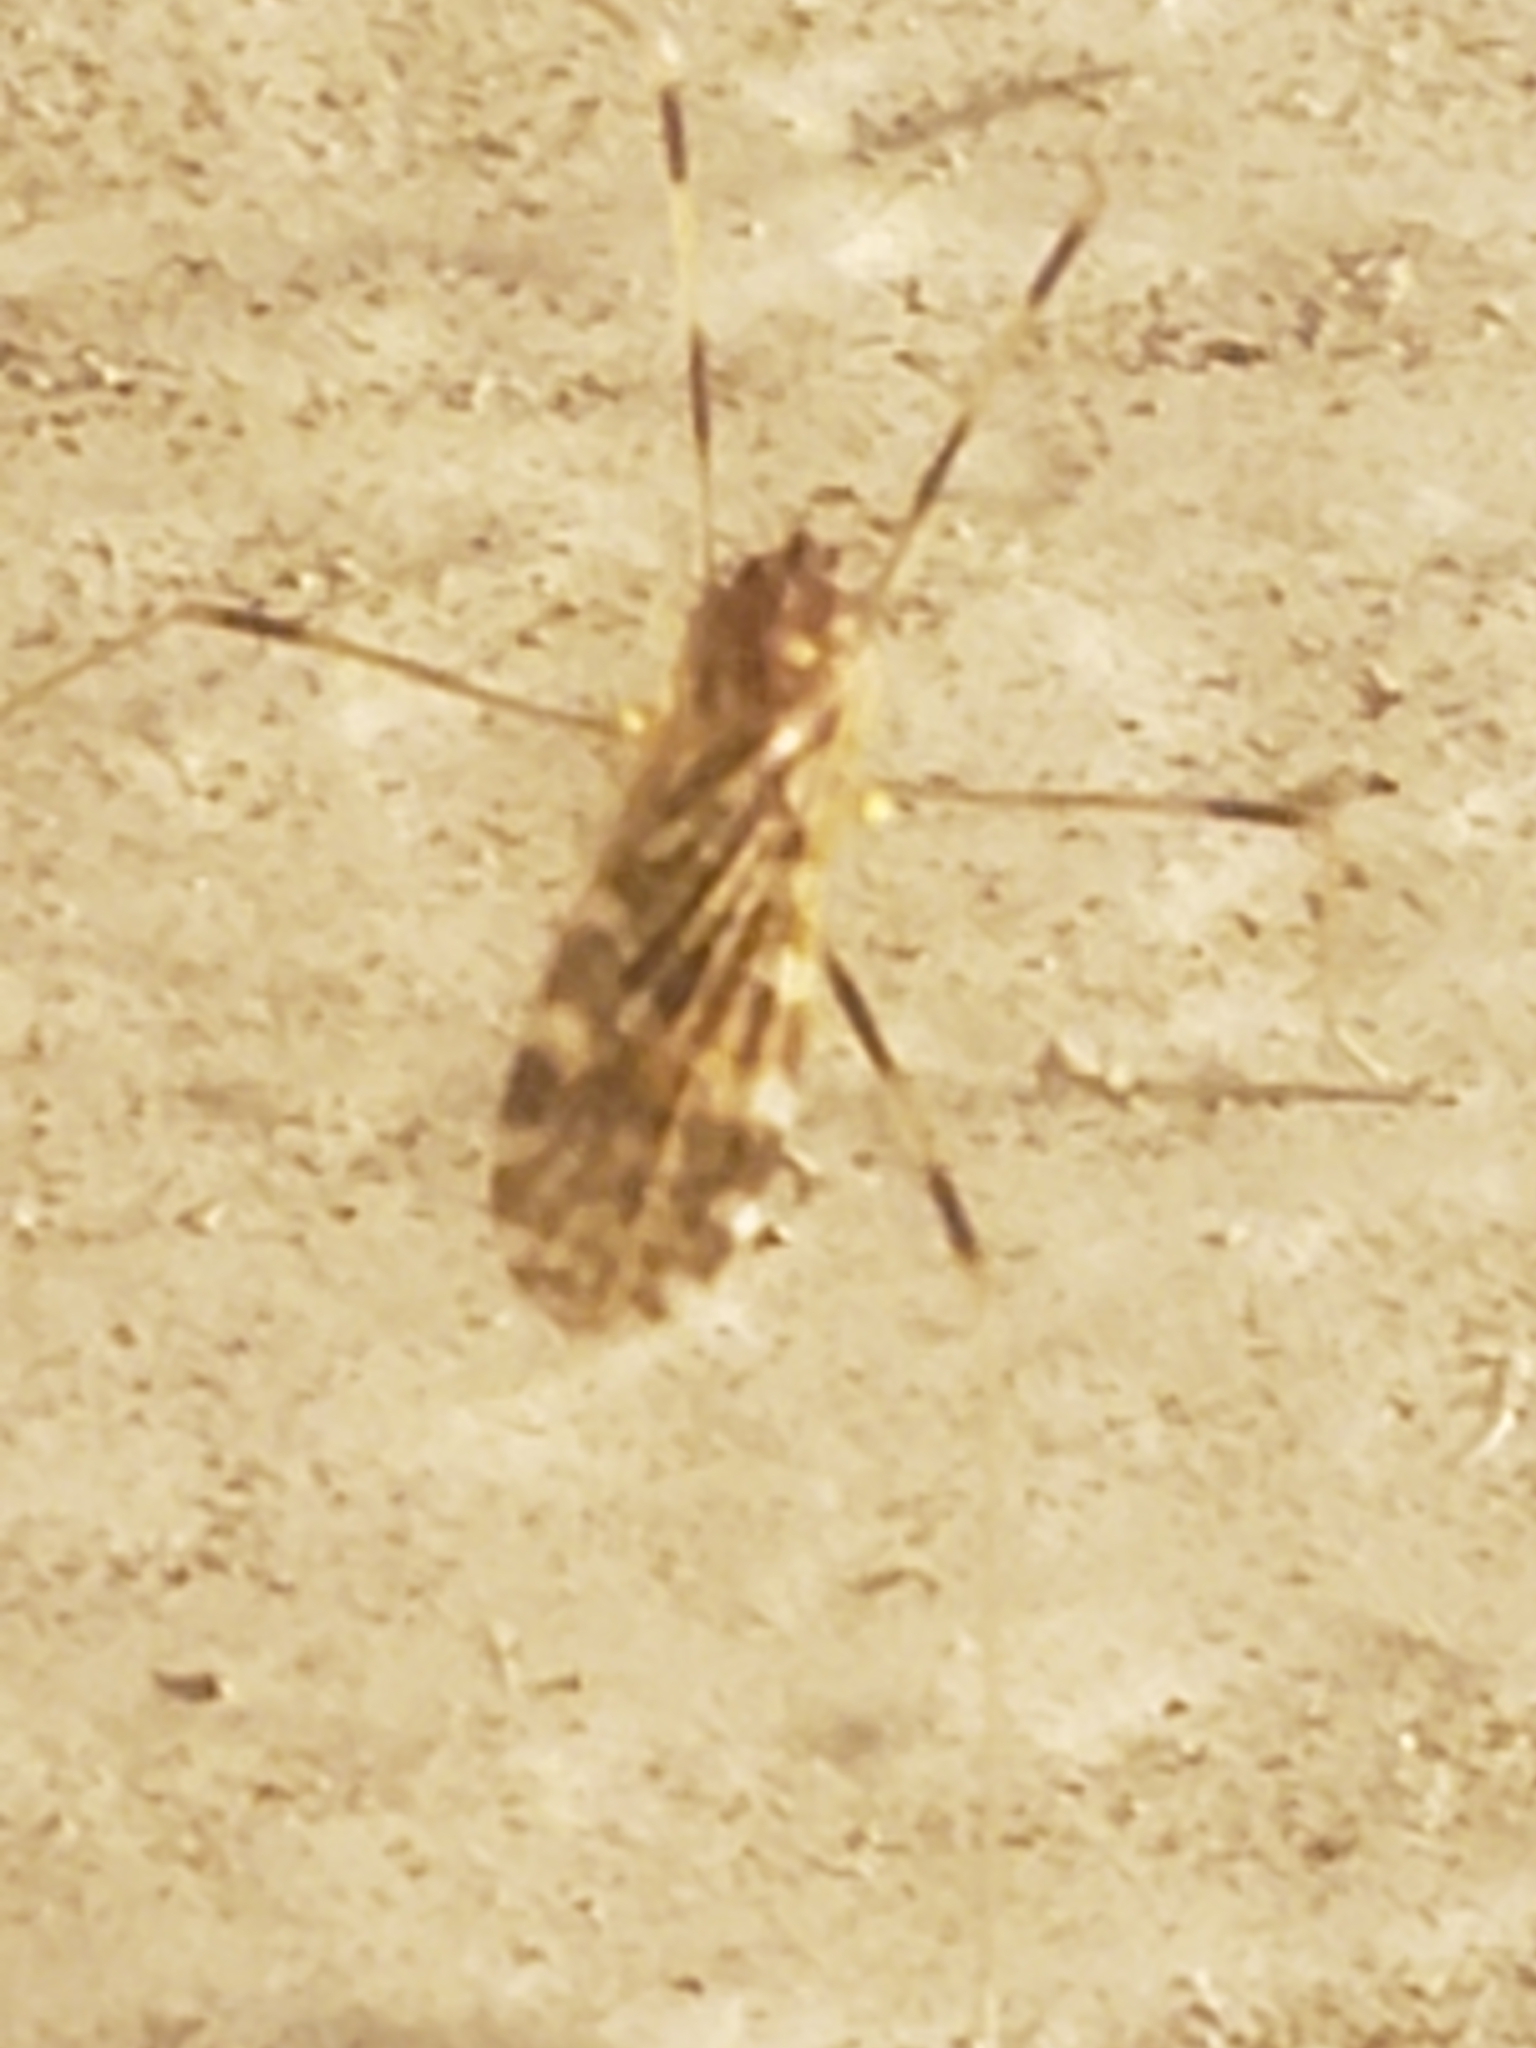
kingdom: Animalia
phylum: Arthropoda
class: Insecta
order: Diptera
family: Limoniidae
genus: Erioptera
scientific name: Erioptera caliptera
